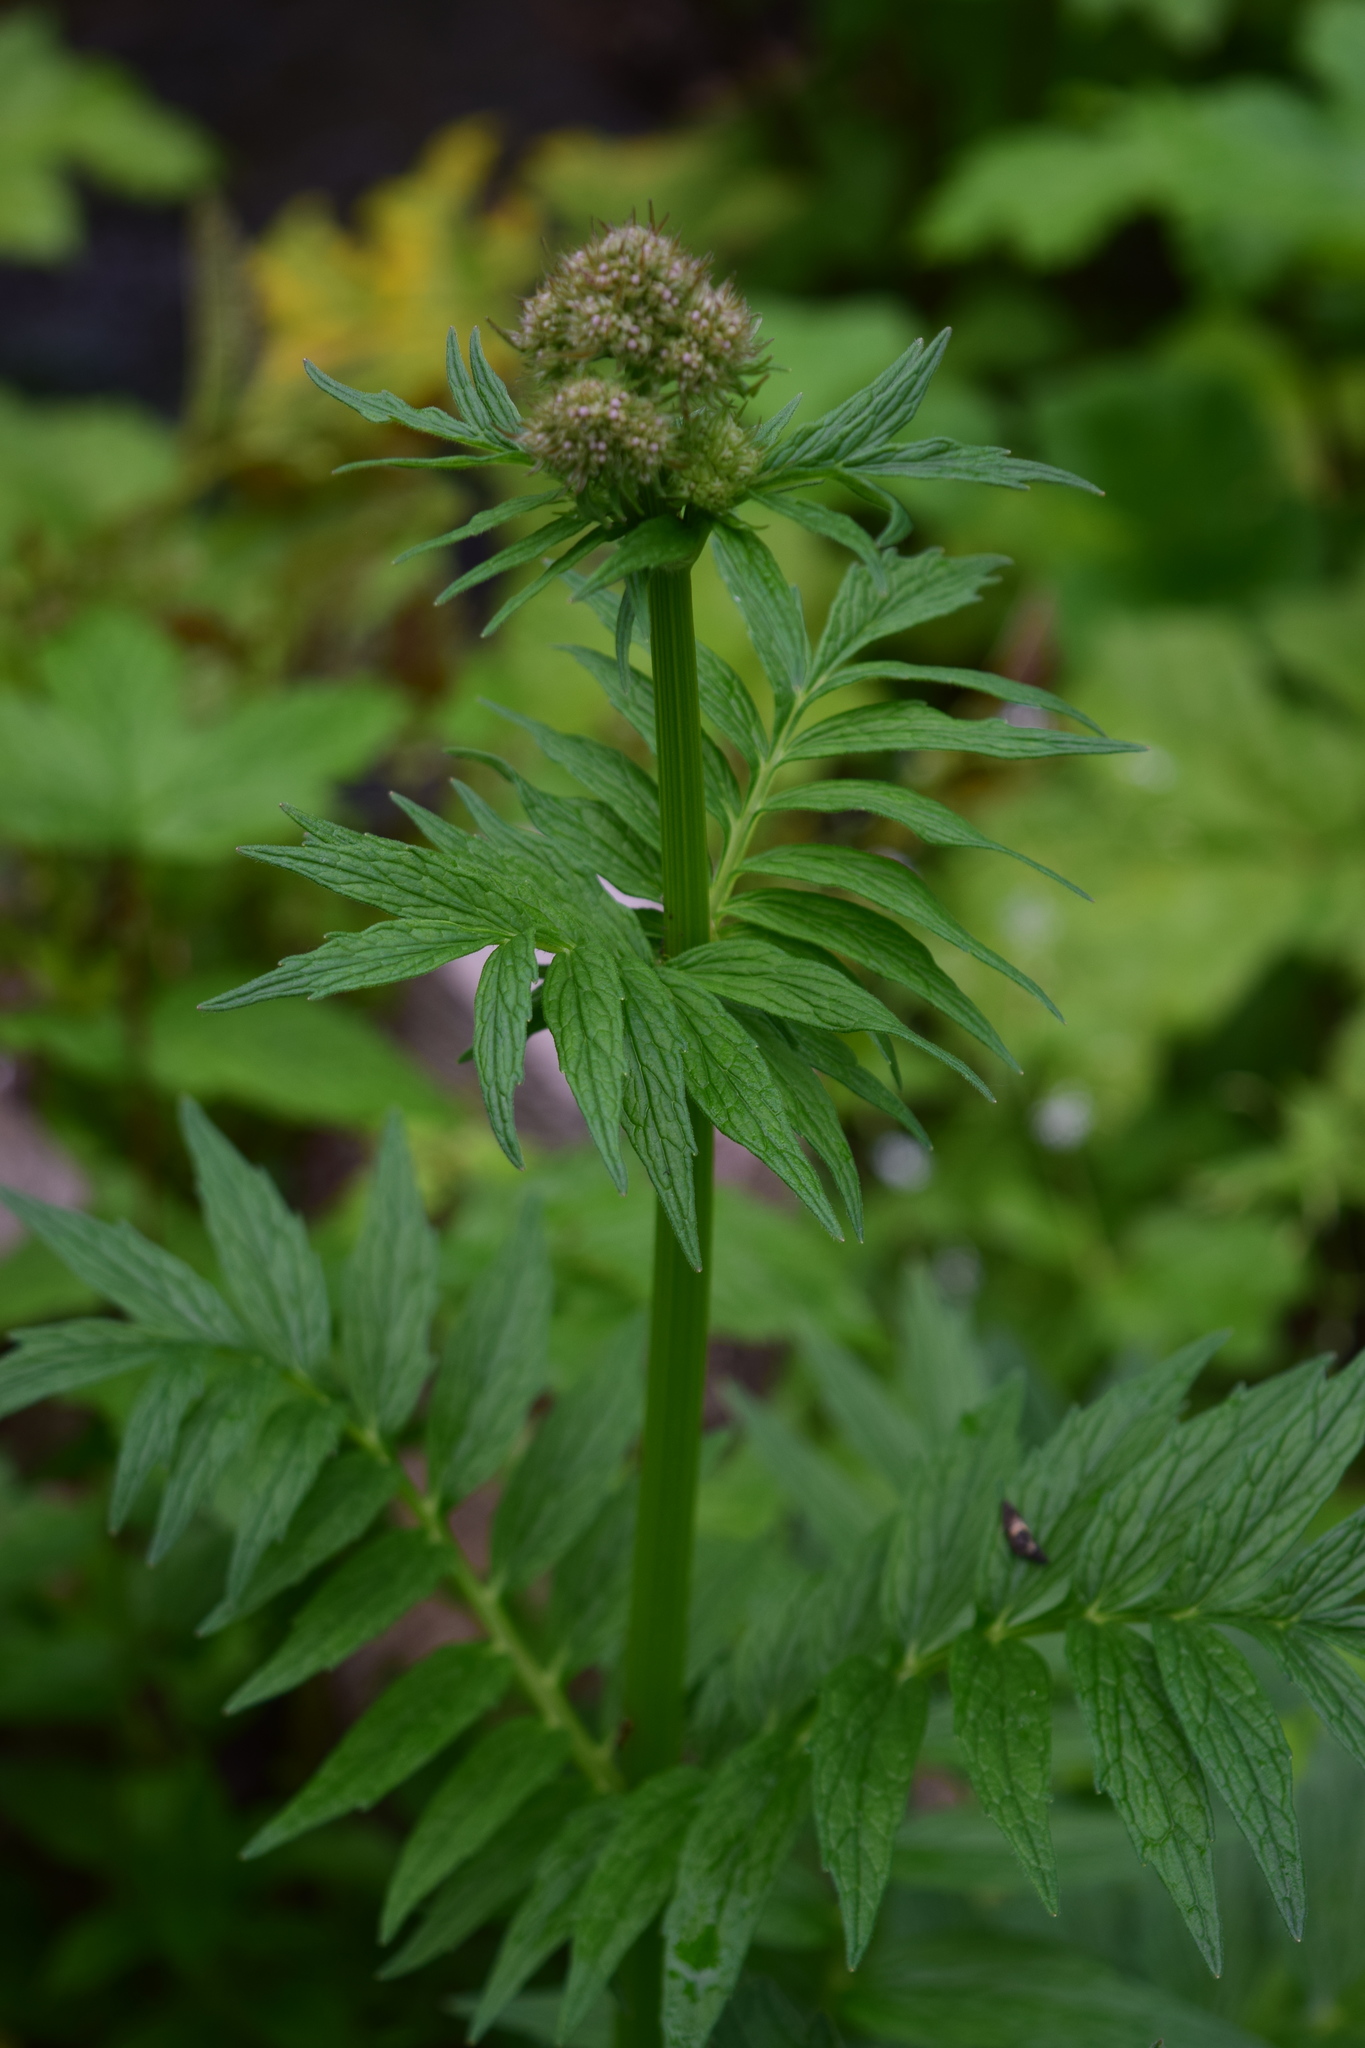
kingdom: Plantae
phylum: Tracheophyta
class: Magnoliopsida
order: Dipsacales
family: Caprifoliaceae
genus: Valeriana
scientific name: Valeriana officinalis
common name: Common valerian
